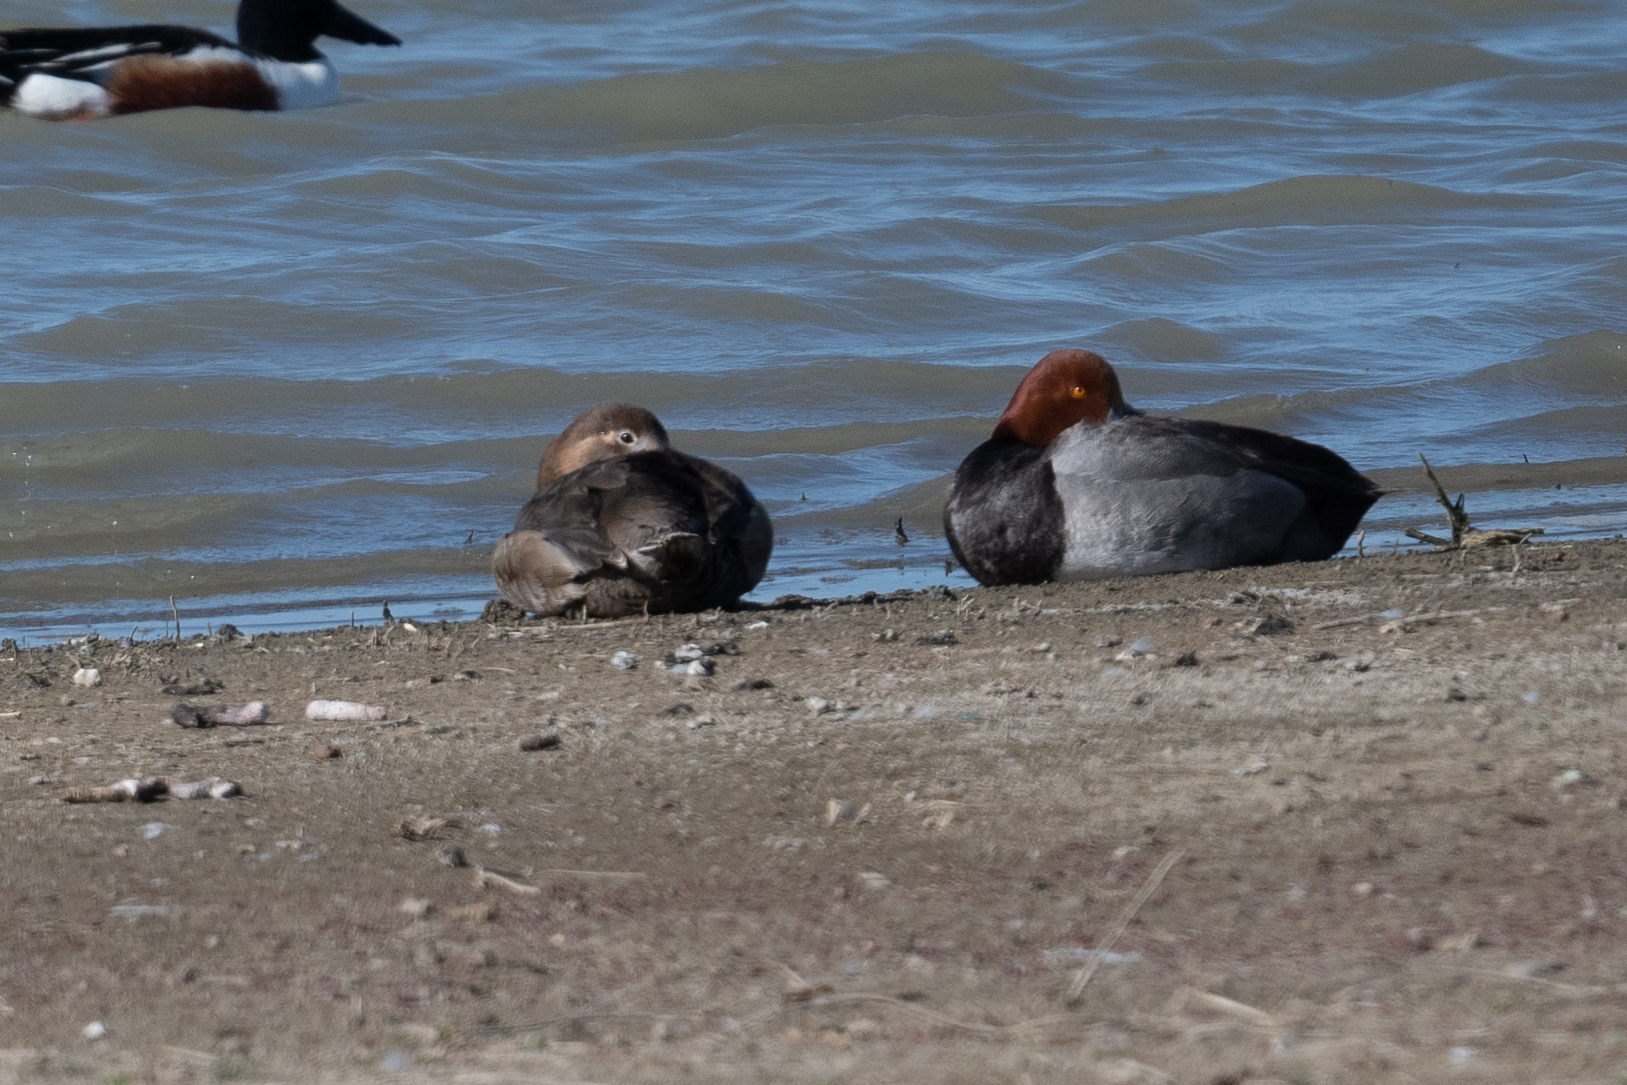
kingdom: Animalia
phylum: Chordata
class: Aves
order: Anseriformes
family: Anatidae
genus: Aythya
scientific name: Aythya americana
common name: Redhead
